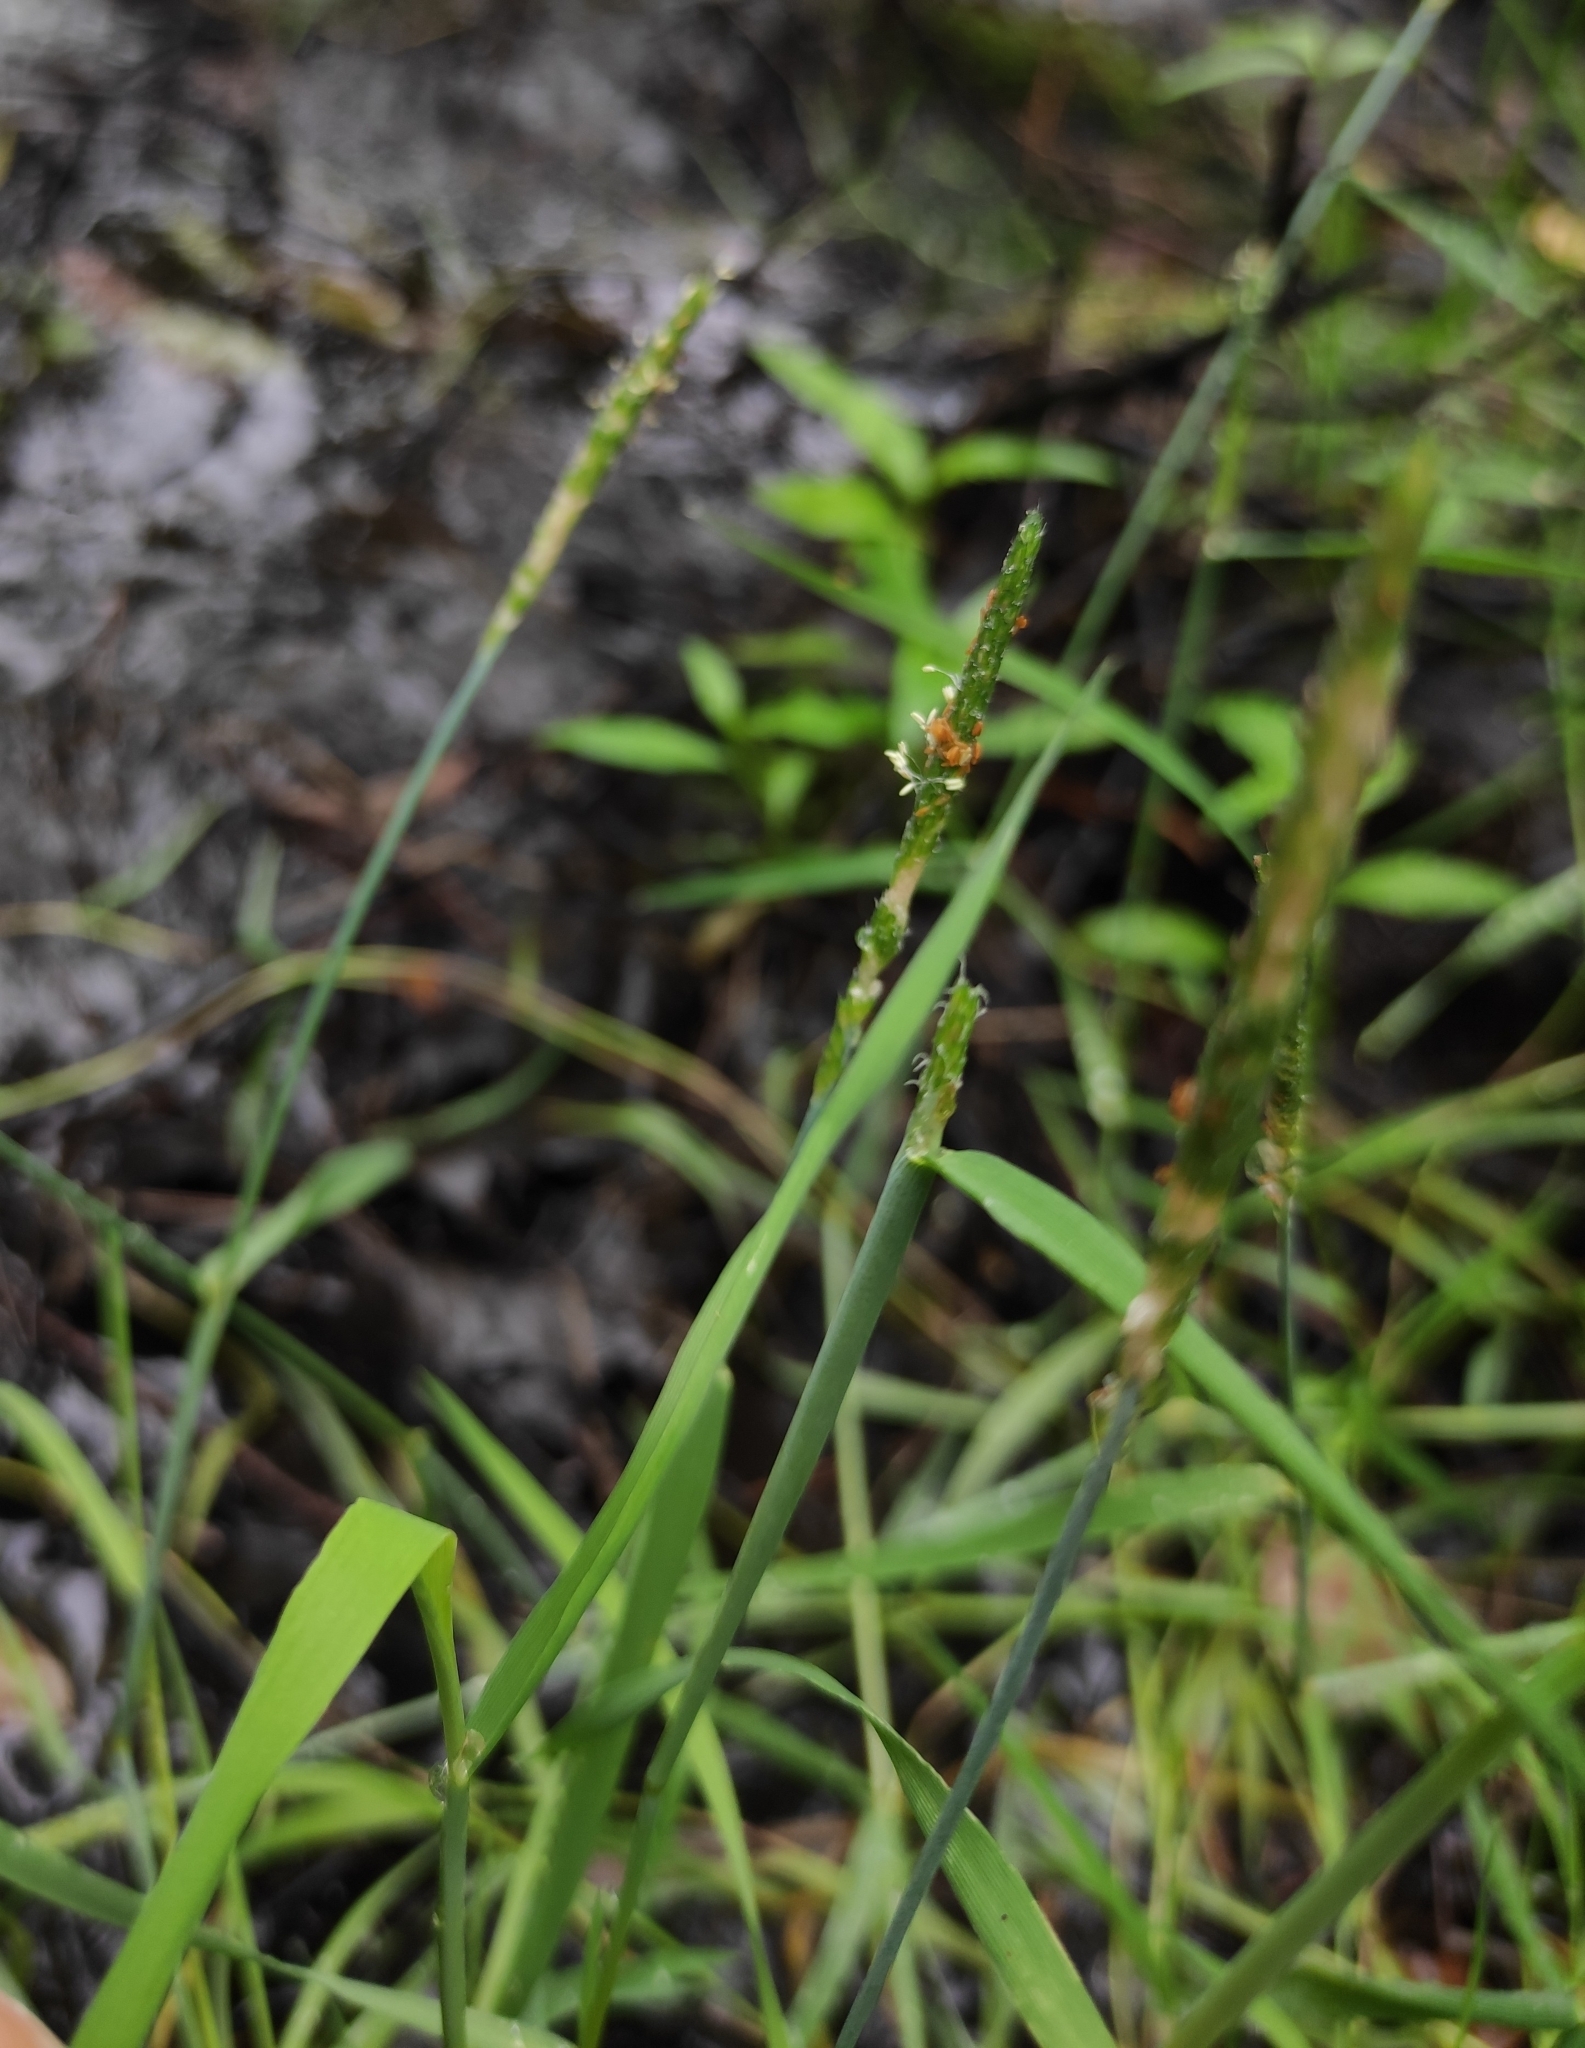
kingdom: Plantae
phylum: Tracheophyta
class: Liliopsida
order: Poales
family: Poaceae
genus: Alopecurus
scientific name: Alopecurus aequalis
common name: Orange foxtail
